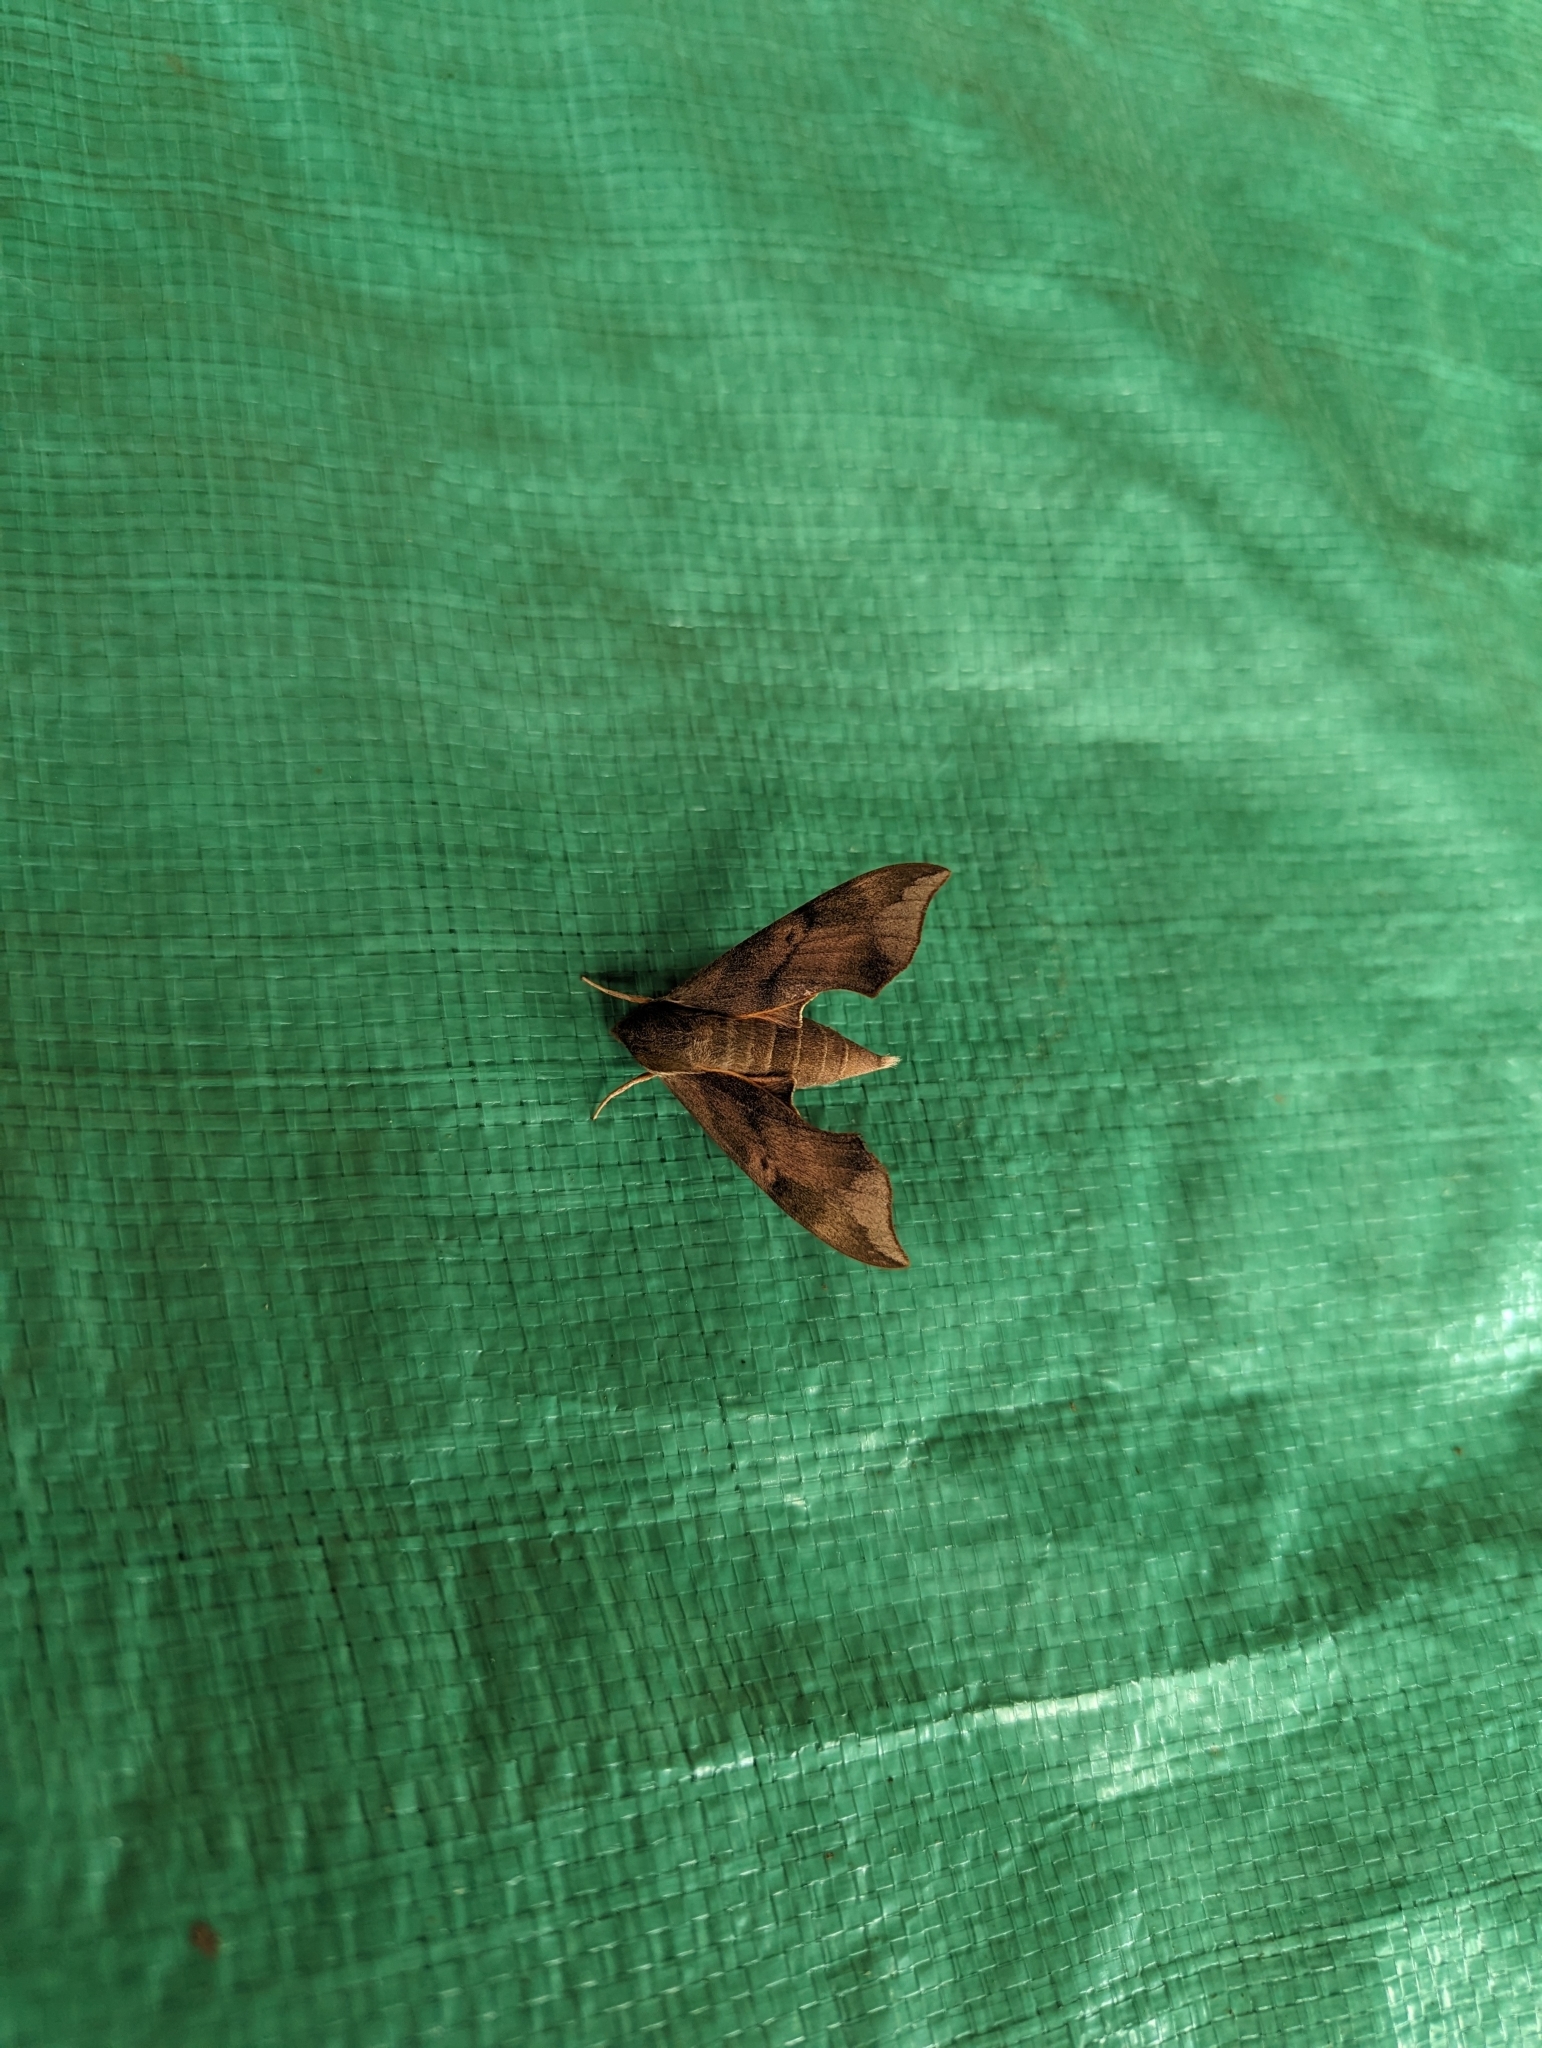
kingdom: Animalia
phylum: Arthropoda
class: Insecta
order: Lepidoptera
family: Sphingidae
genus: Darapsa
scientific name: Darapsa myron
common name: Hog sphinx
